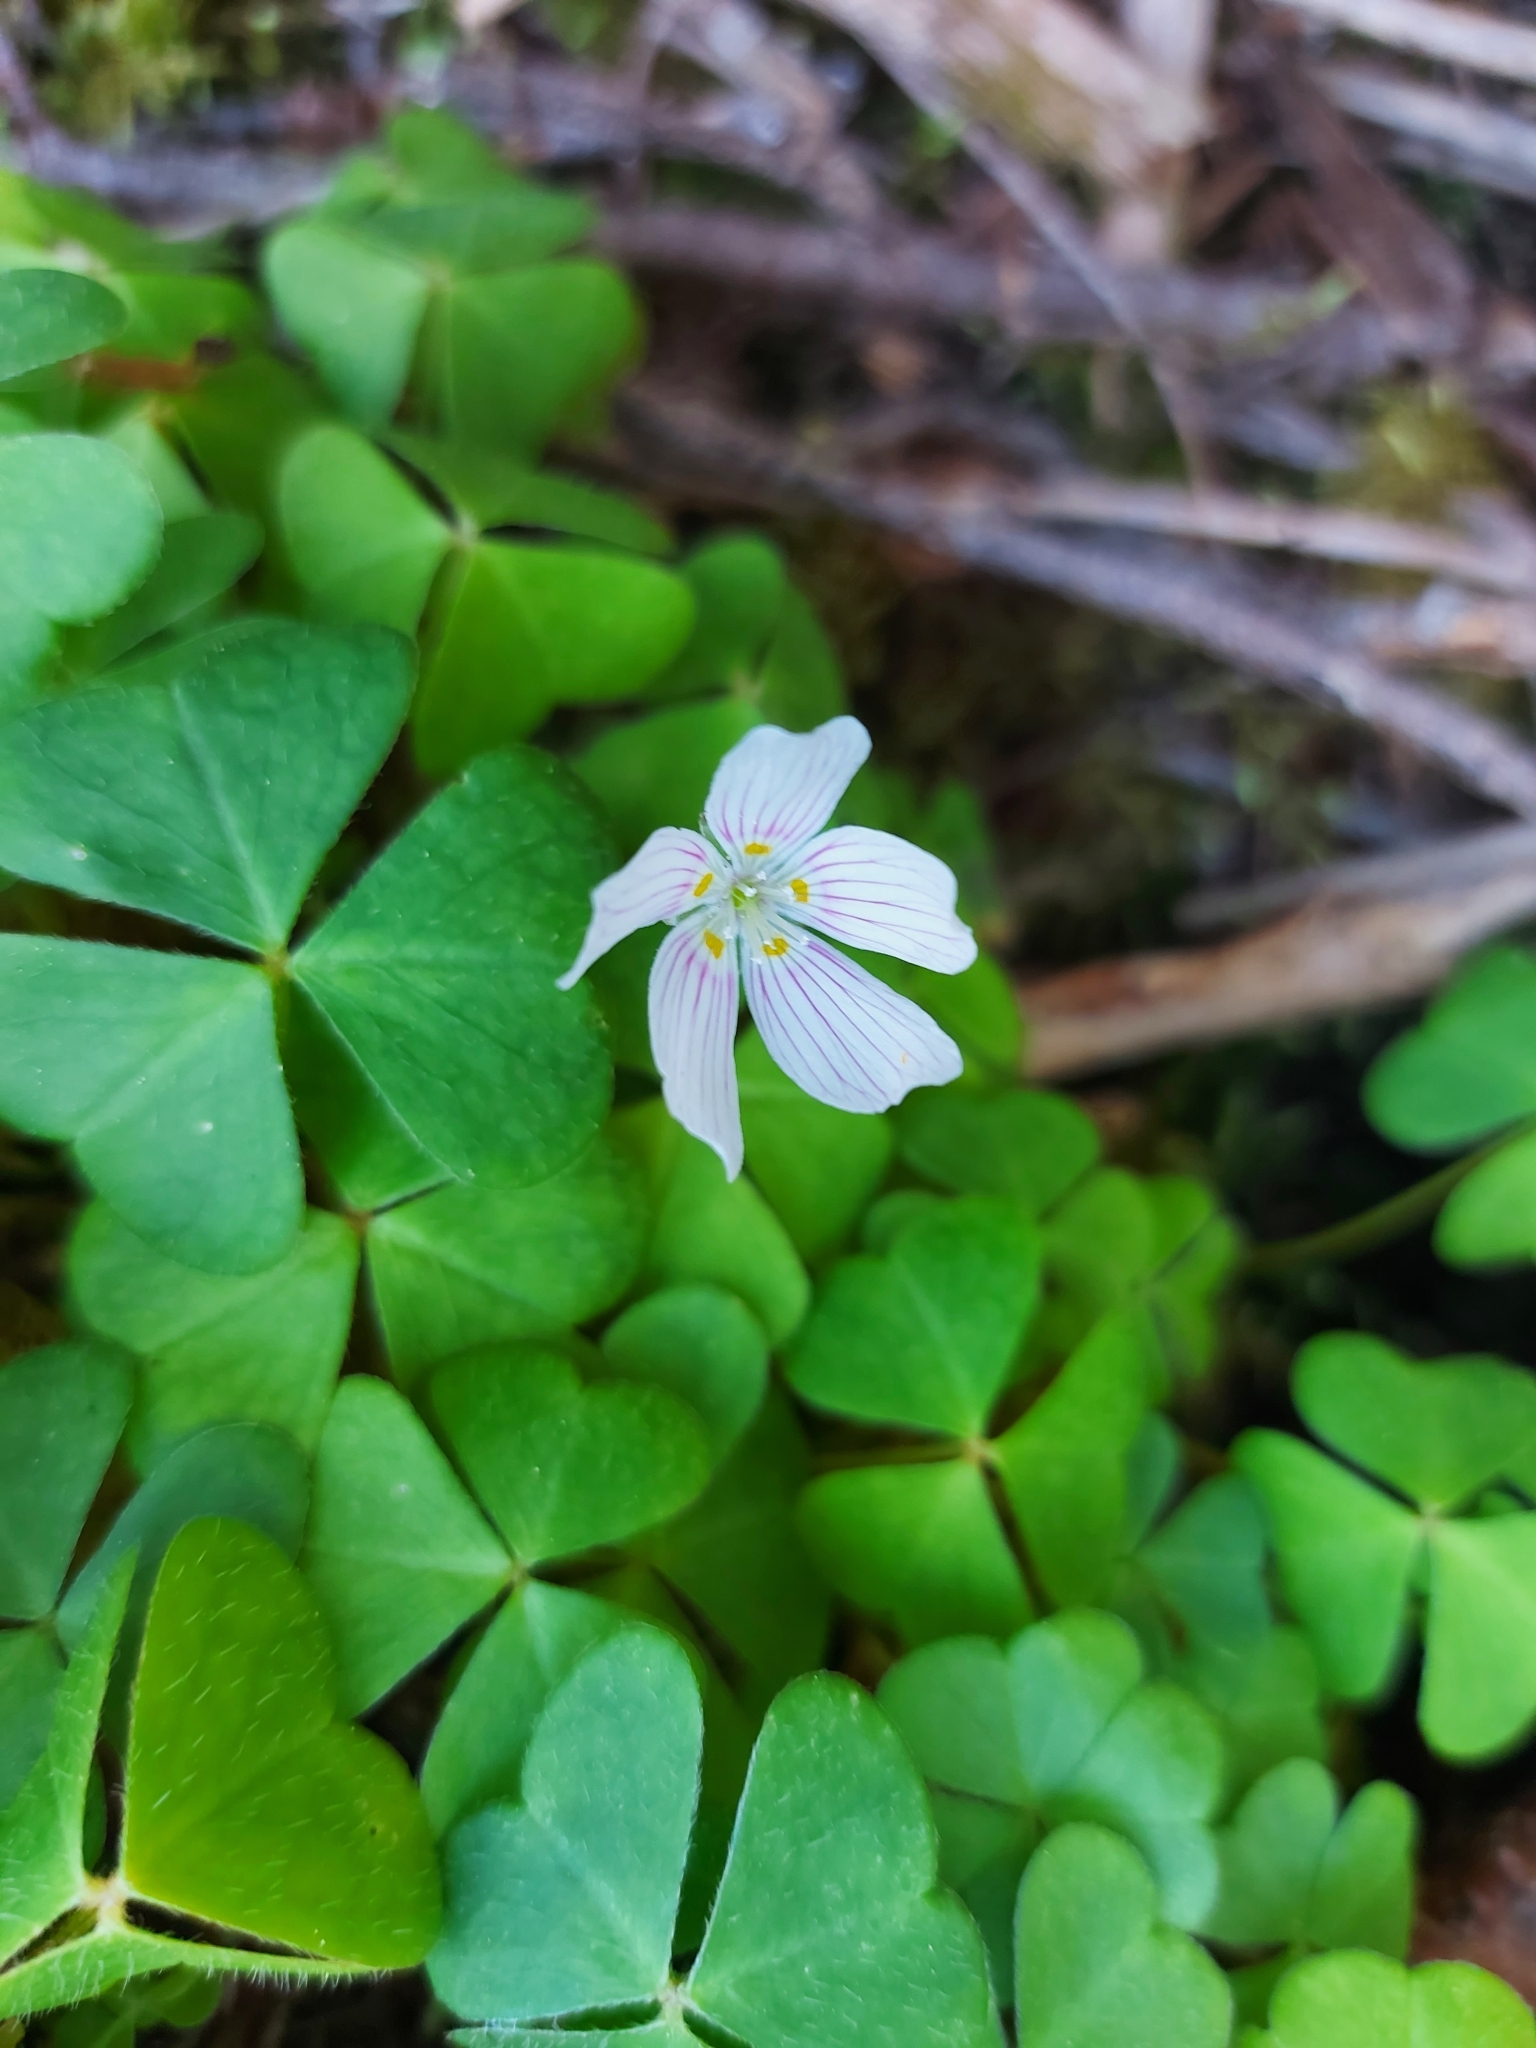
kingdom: Plantae
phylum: Tracheophyta
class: Magnoliopsida
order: Oxalidales
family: Oxalidaceae
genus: Oxalis
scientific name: Oxalis montana
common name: American wood-sorrel
